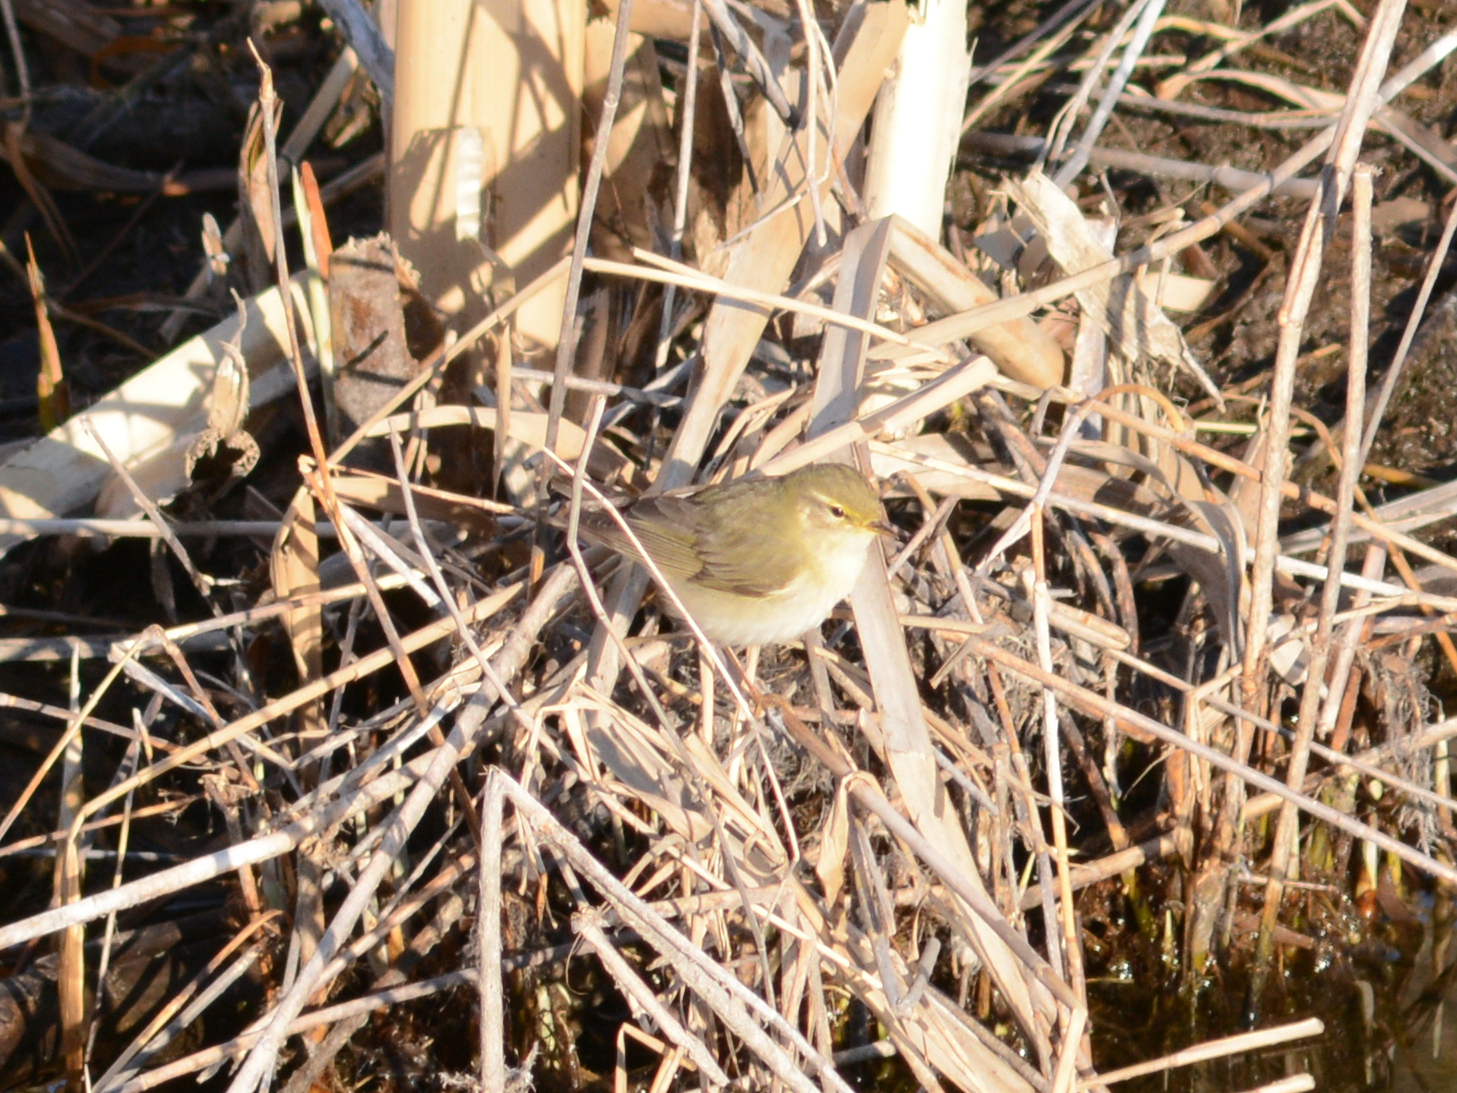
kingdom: Animalia
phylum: Chordata
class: Aves
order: Passeriformes
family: Phylloscopidae
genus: Phylloscopus
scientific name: Phylloscopus trochilus
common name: Willow warbler
